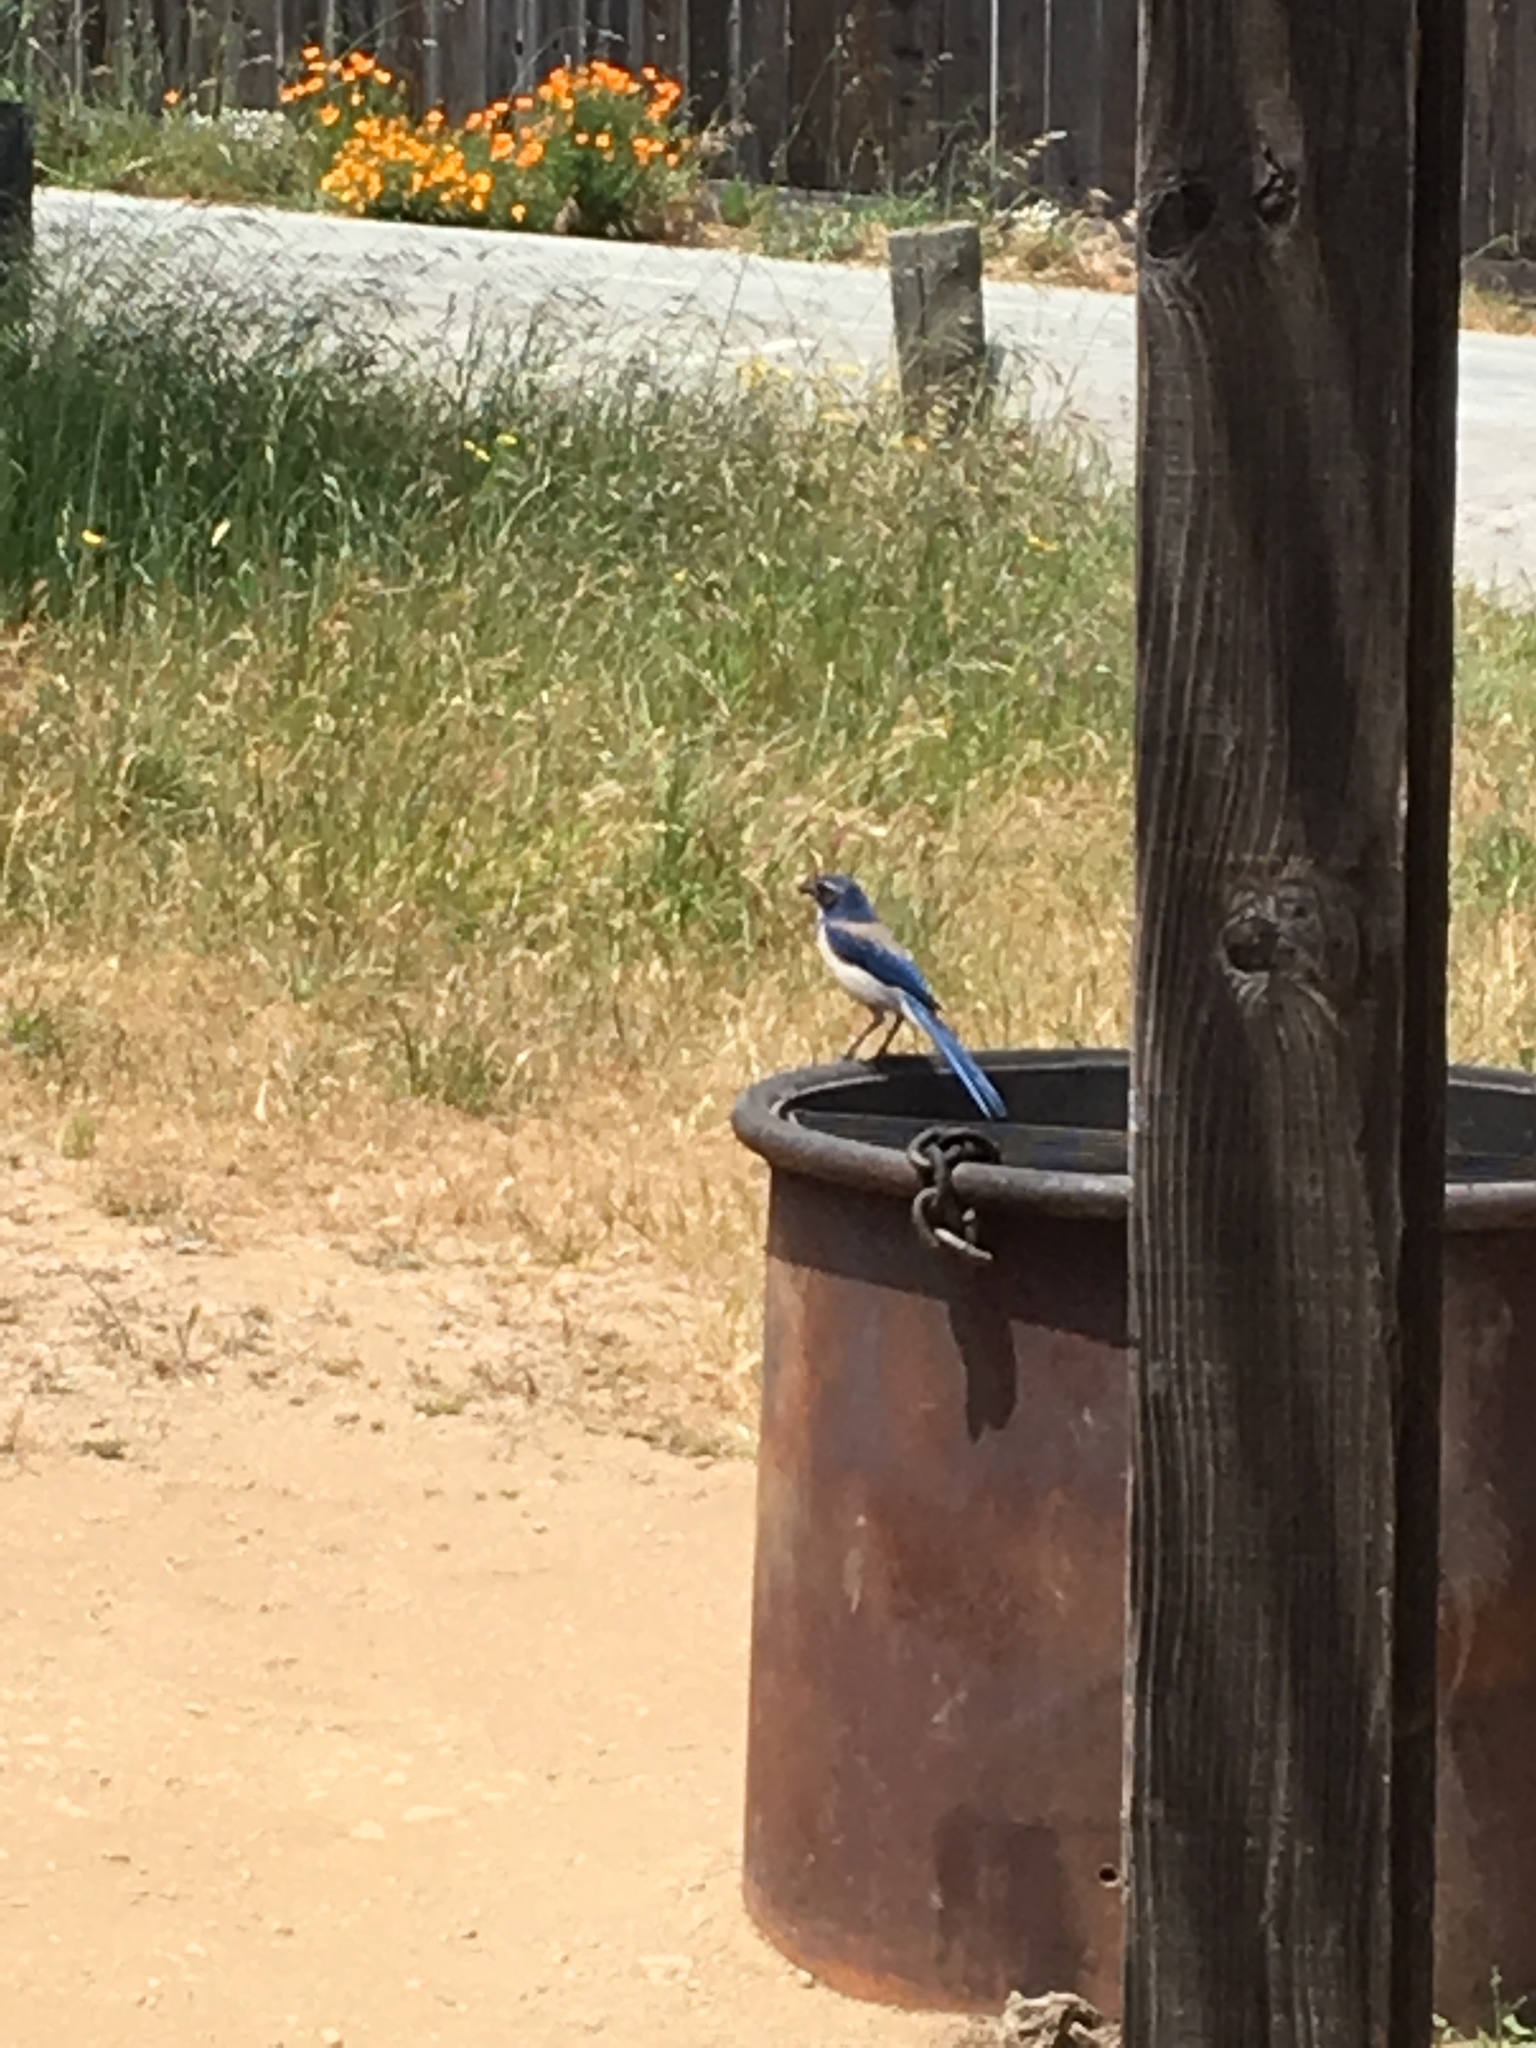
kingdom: Animalia
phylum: Chordata
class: Aves
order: Passeriformes
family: Corvidae
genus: Aphelocoma
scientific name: Aphelocoma californica
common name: California scrub-jay
